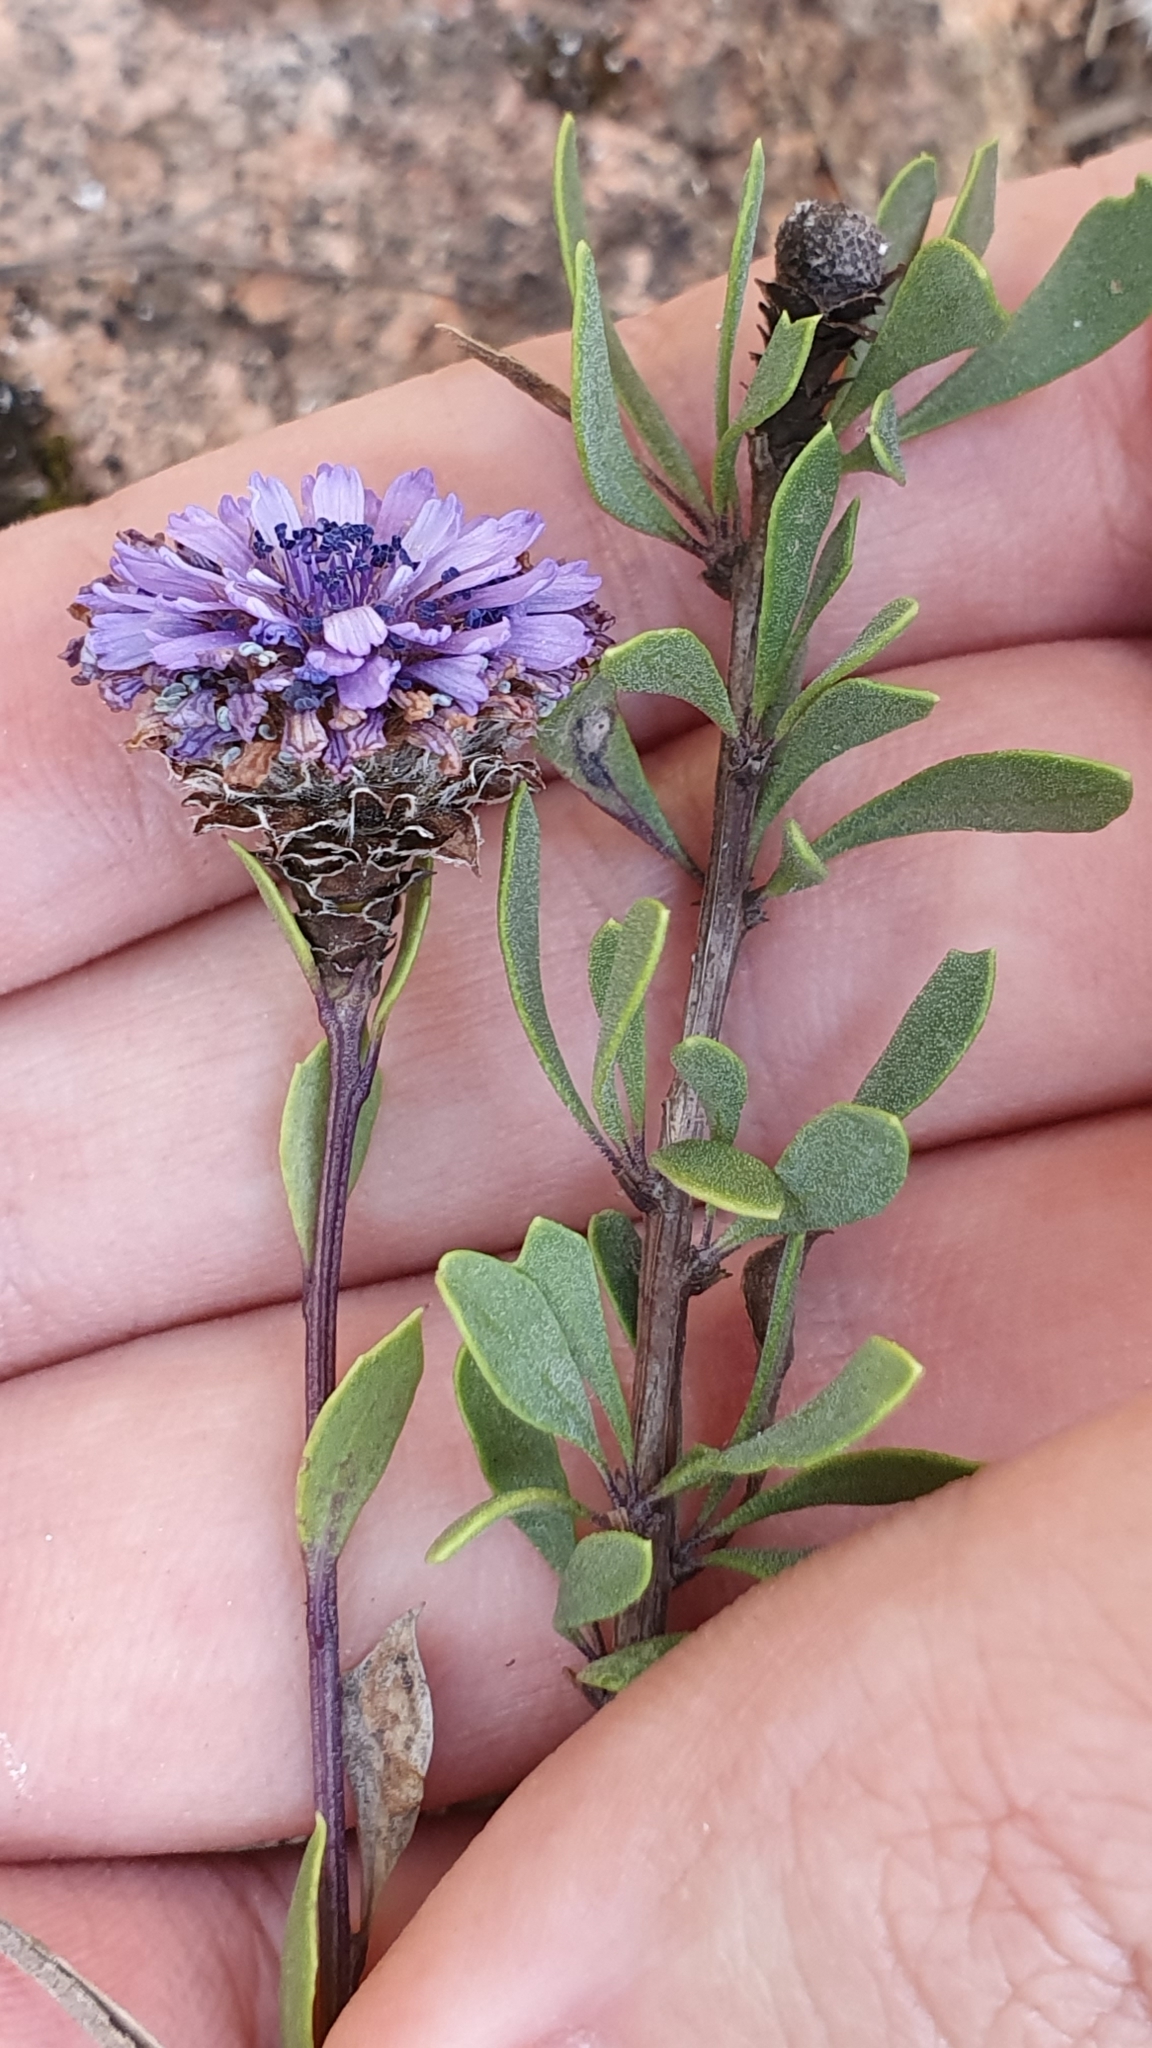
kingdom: Plantae
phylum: Tracheophyta
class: Magnoliopsida
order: Lamiales
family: Plantaginaceae
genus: Globularia
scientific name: Globularia alypum
